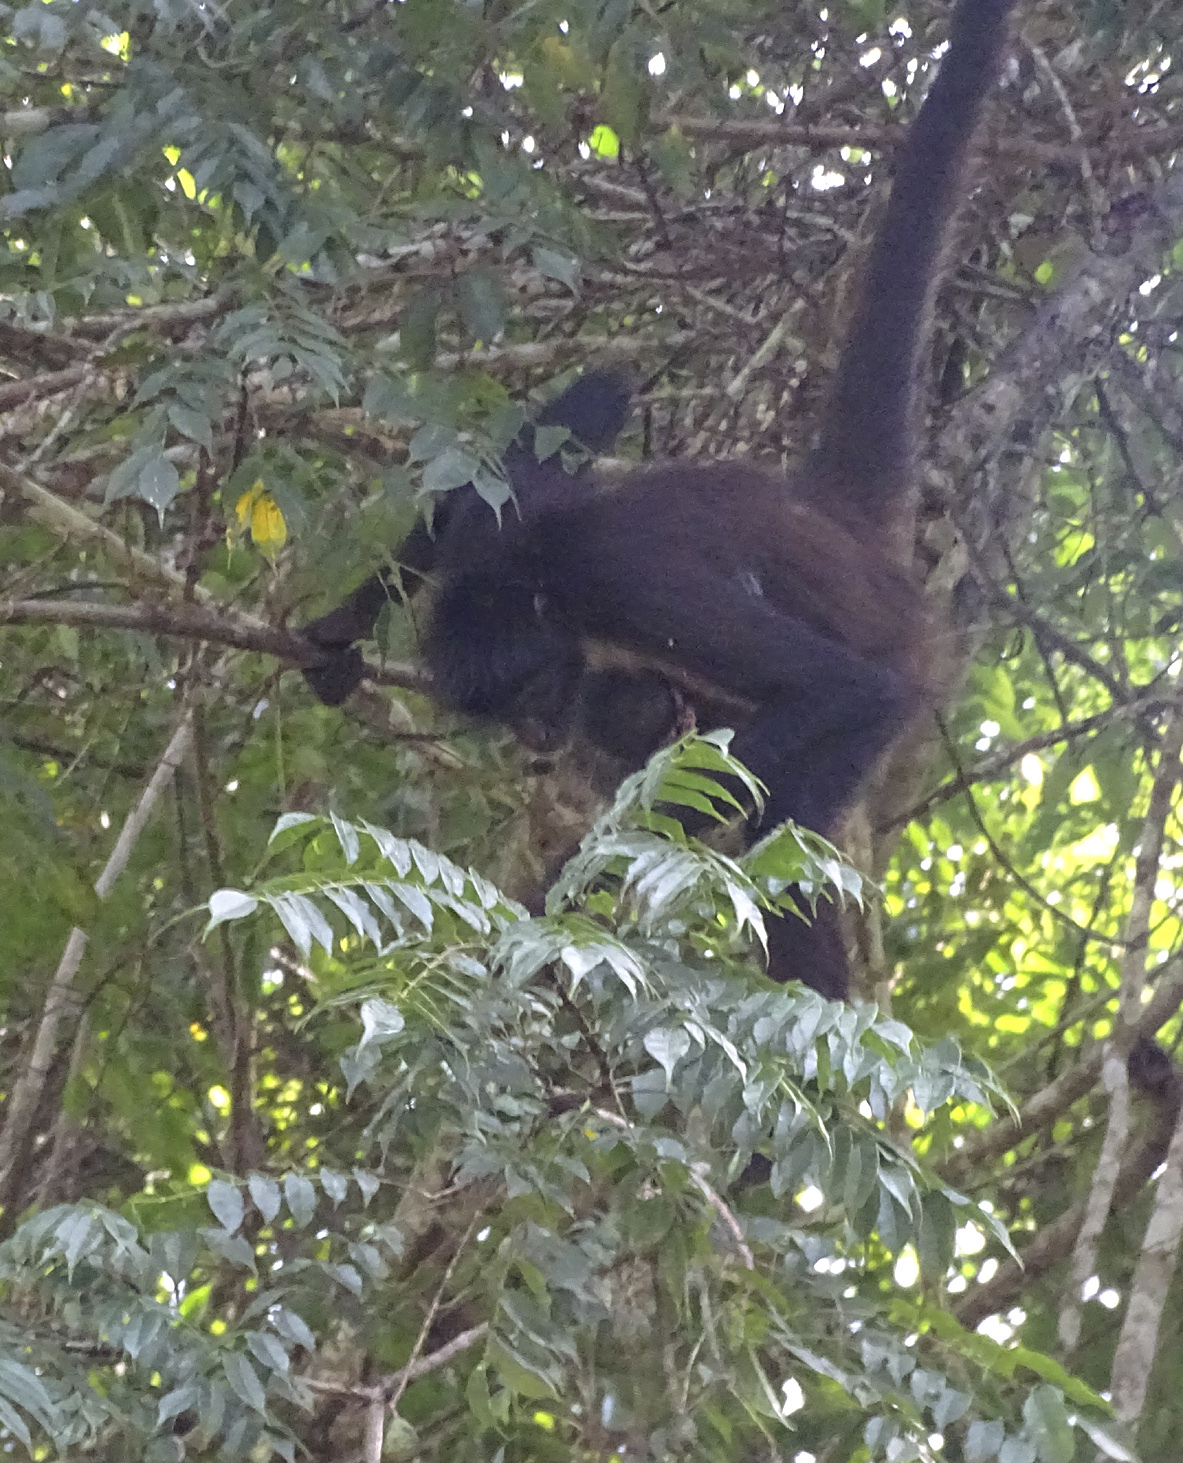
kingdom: Animalia
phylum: Chordata
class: Mammalia
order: Primates
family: Atelidae
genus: Ateles
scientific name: Ateles geoffroyi
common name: Black-handed spider monkey
